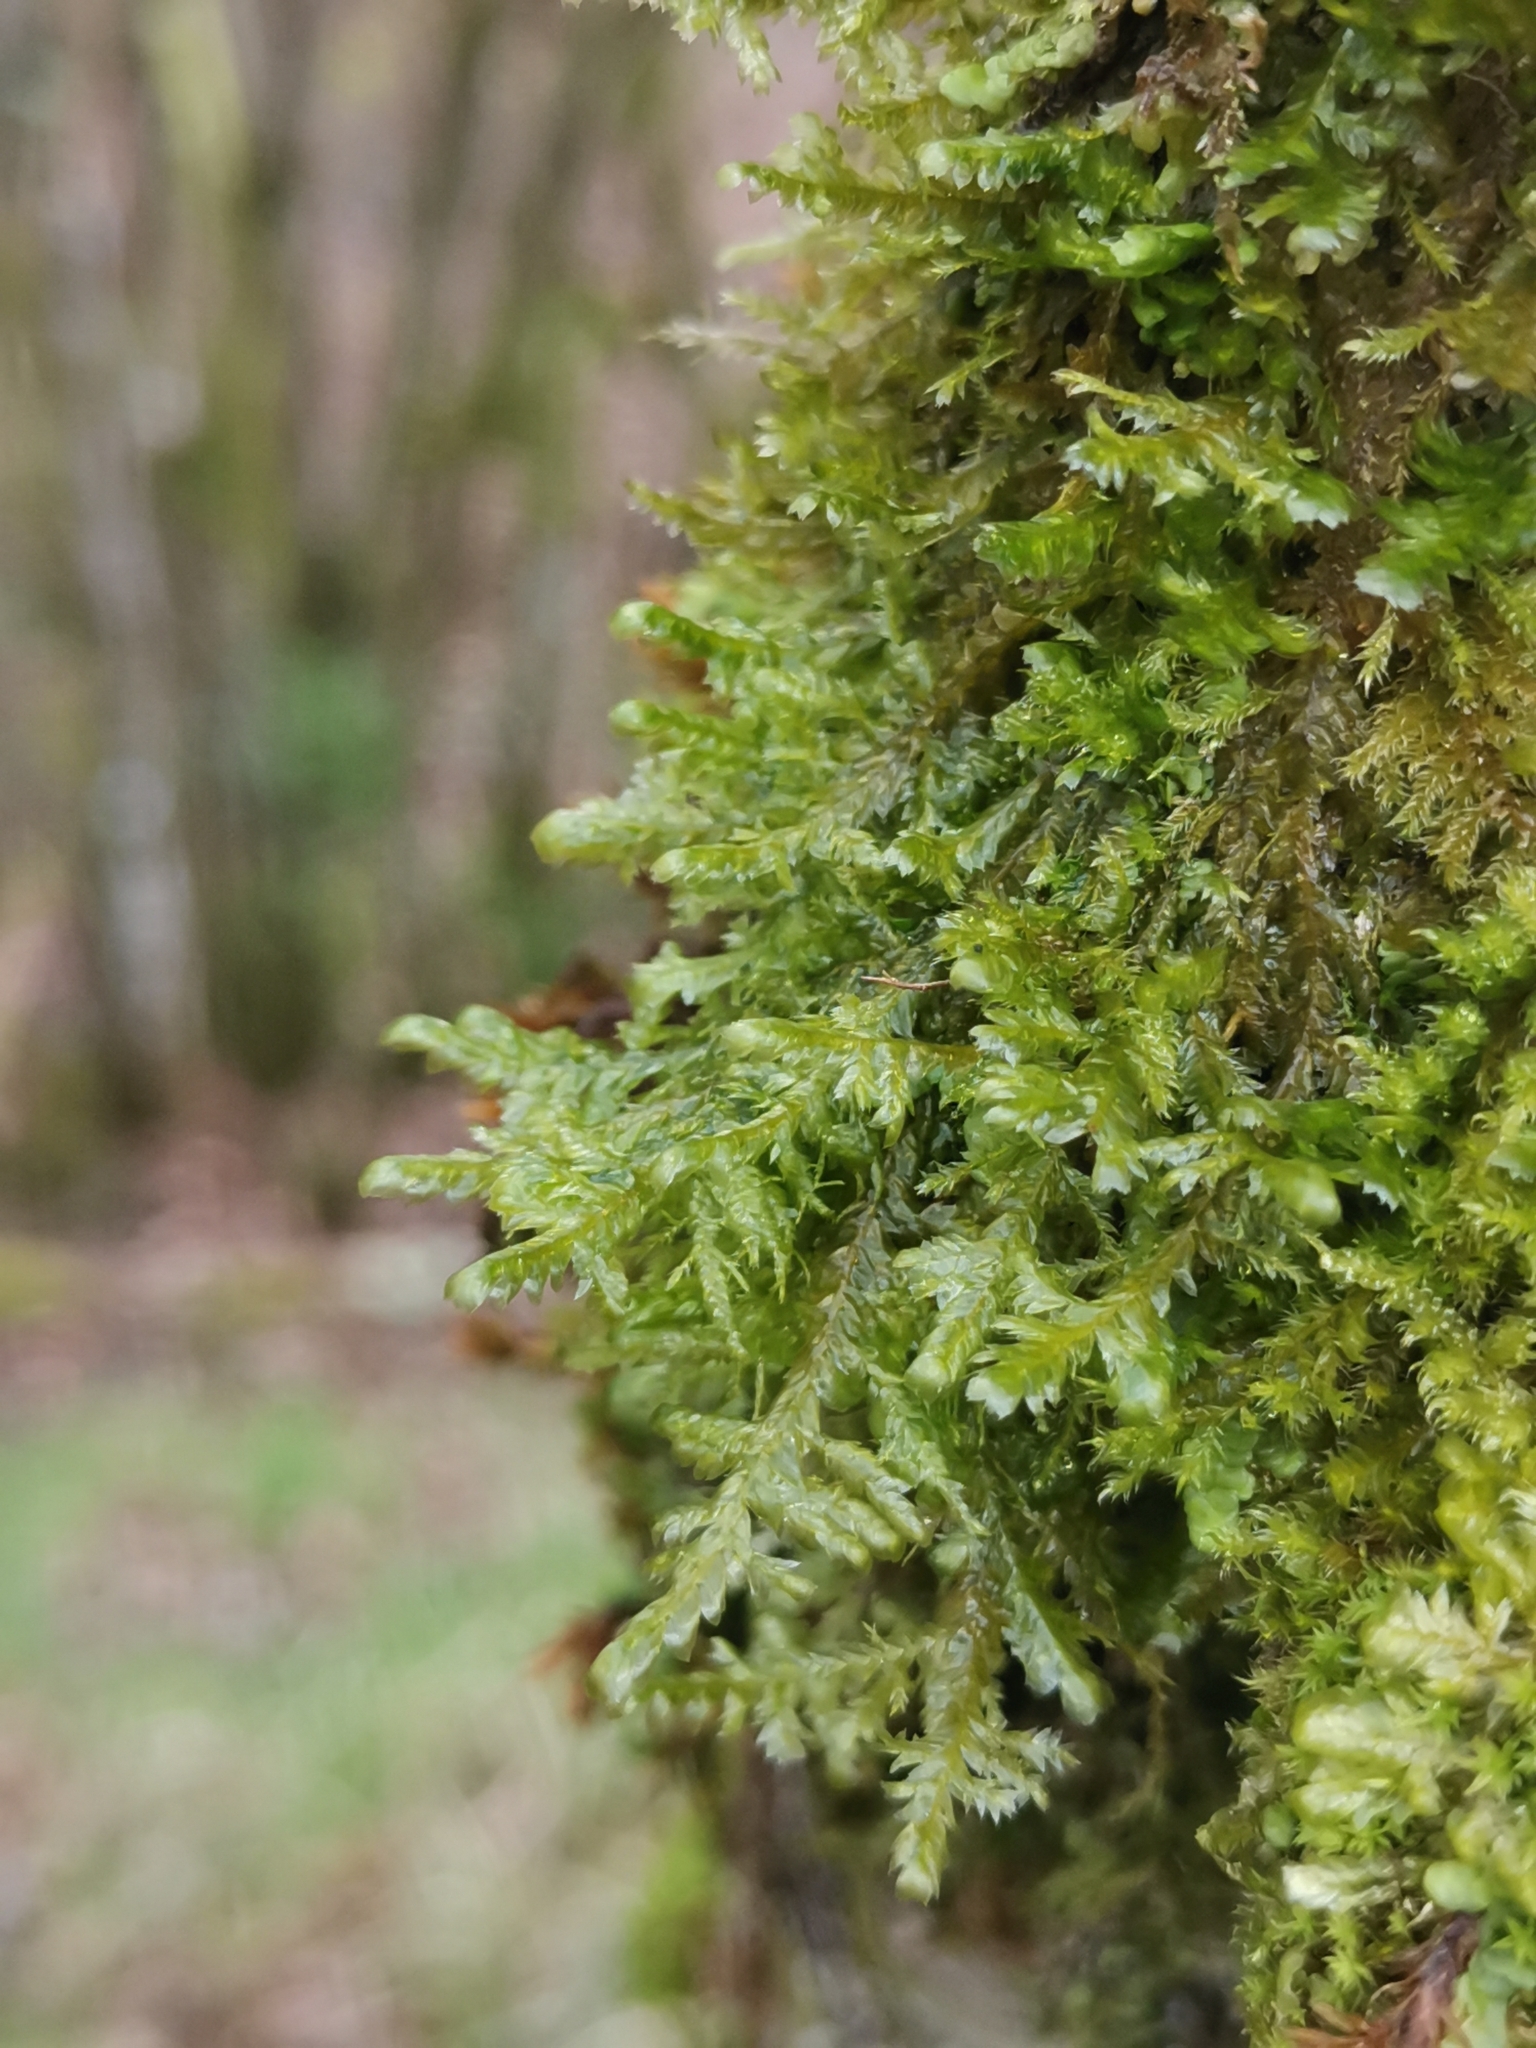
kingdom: Plantae
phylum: Bryophyta
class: Bryopsida
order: Hypnales
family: Neckeraceae
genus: Alleniella
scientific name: Alleniella complanata
